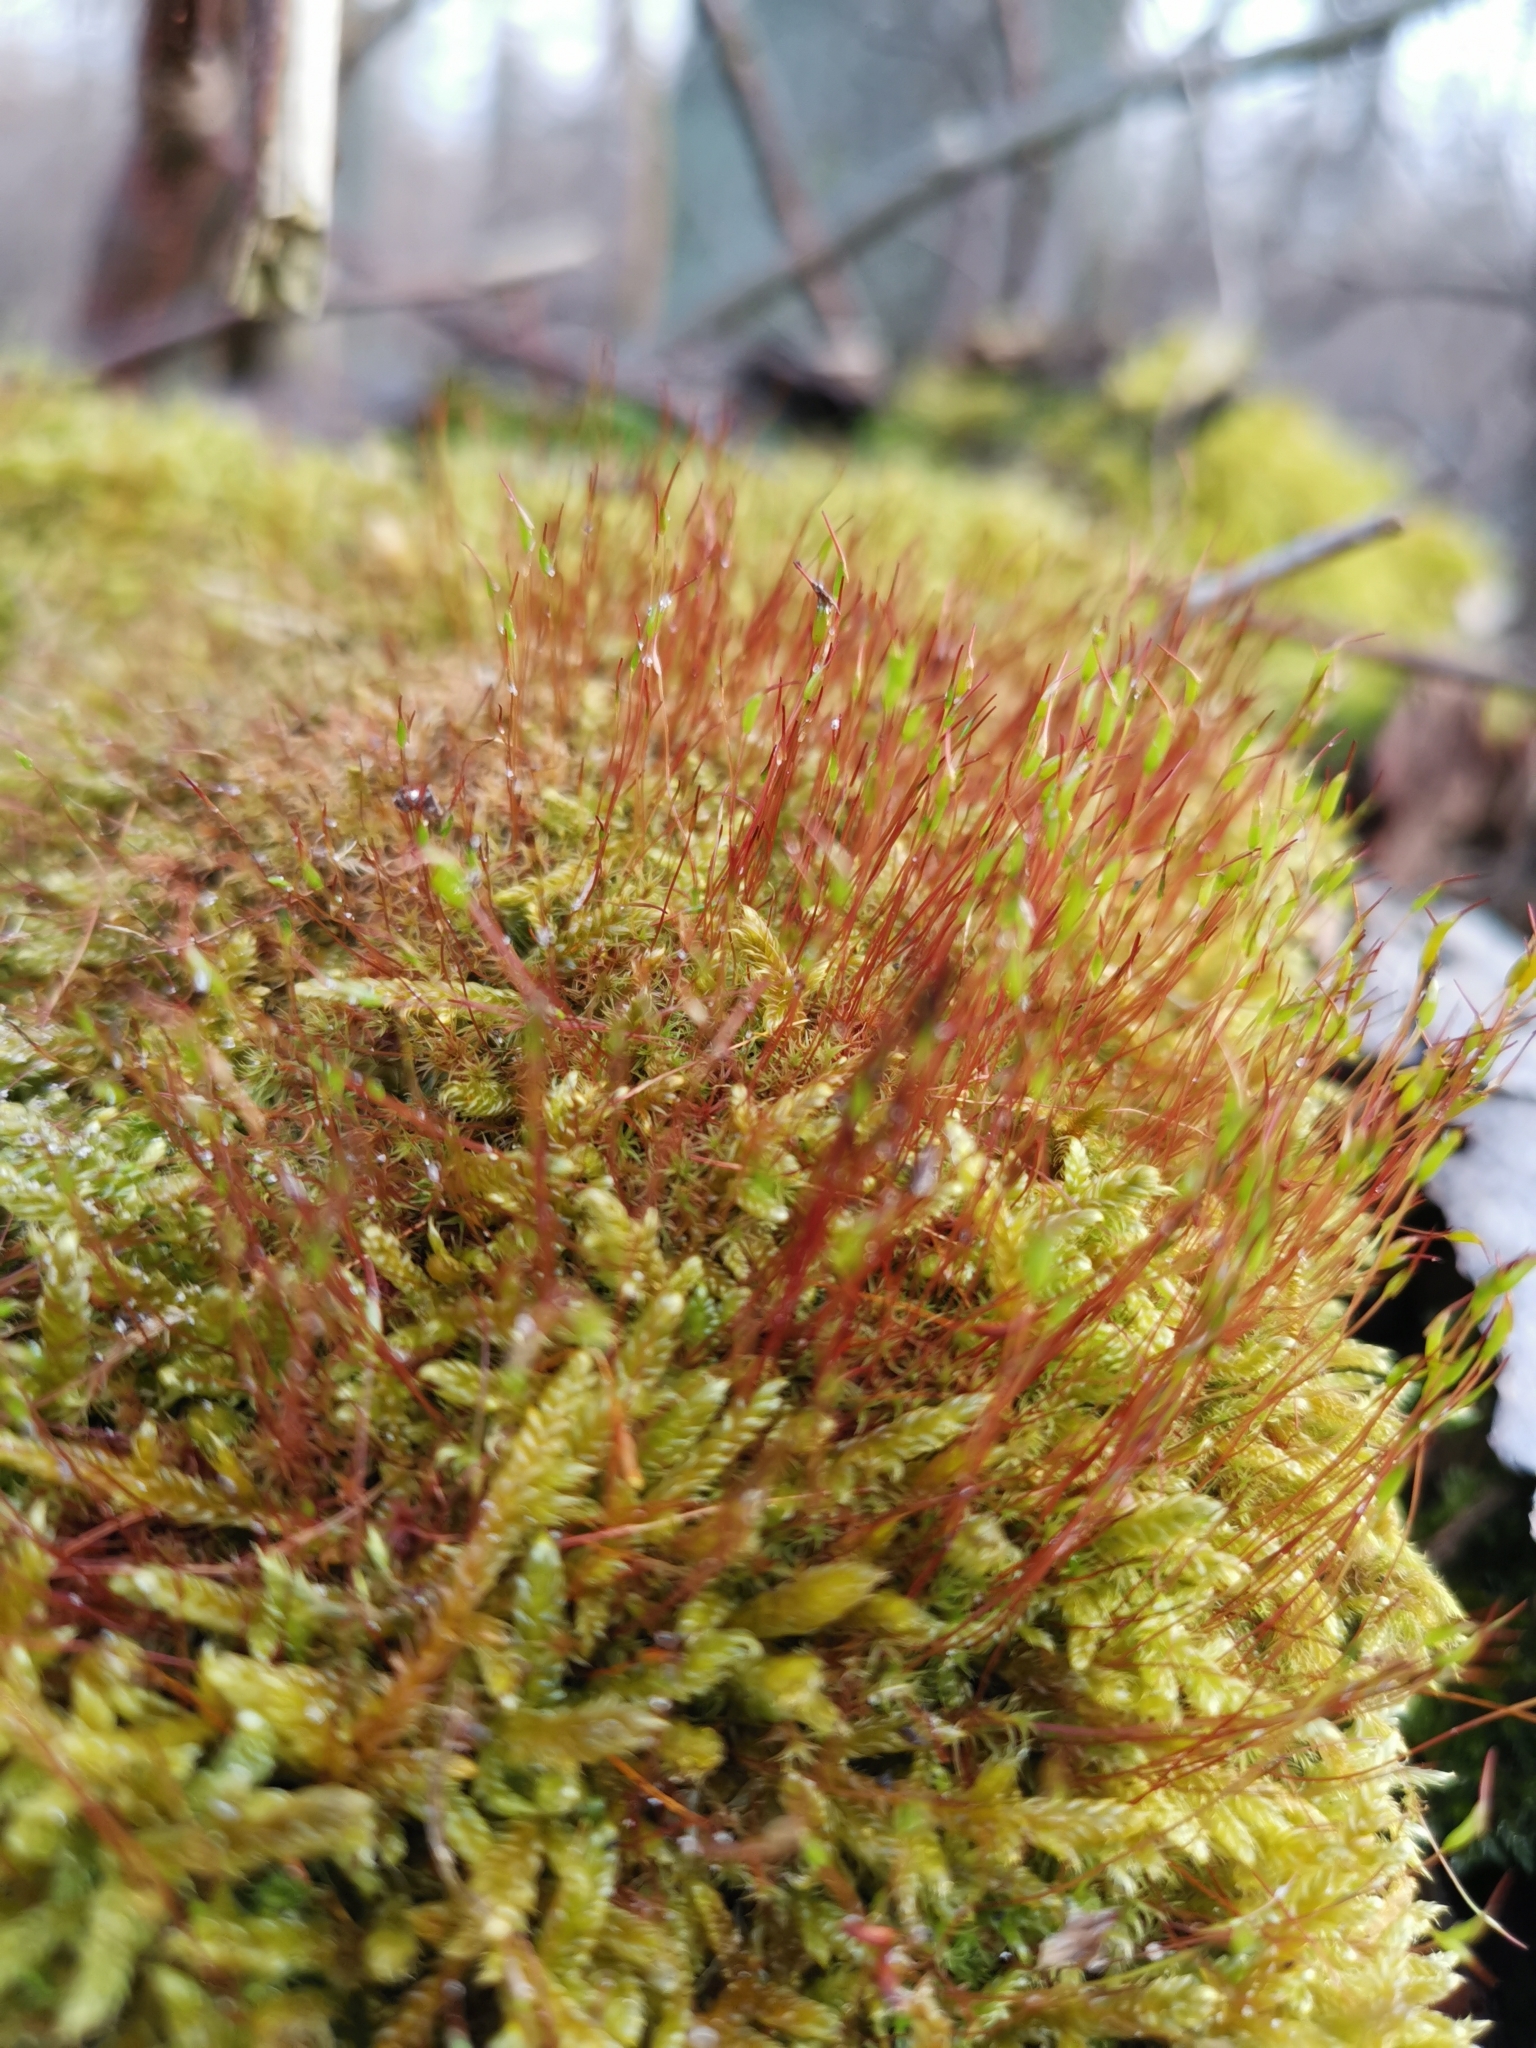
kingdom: Plantae
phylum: Bryophyta
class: Bryopsida
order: Dicranales
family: Ditrichaceae
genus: Ceratodon
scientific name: Ceratodon purpureus
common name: Redshank
